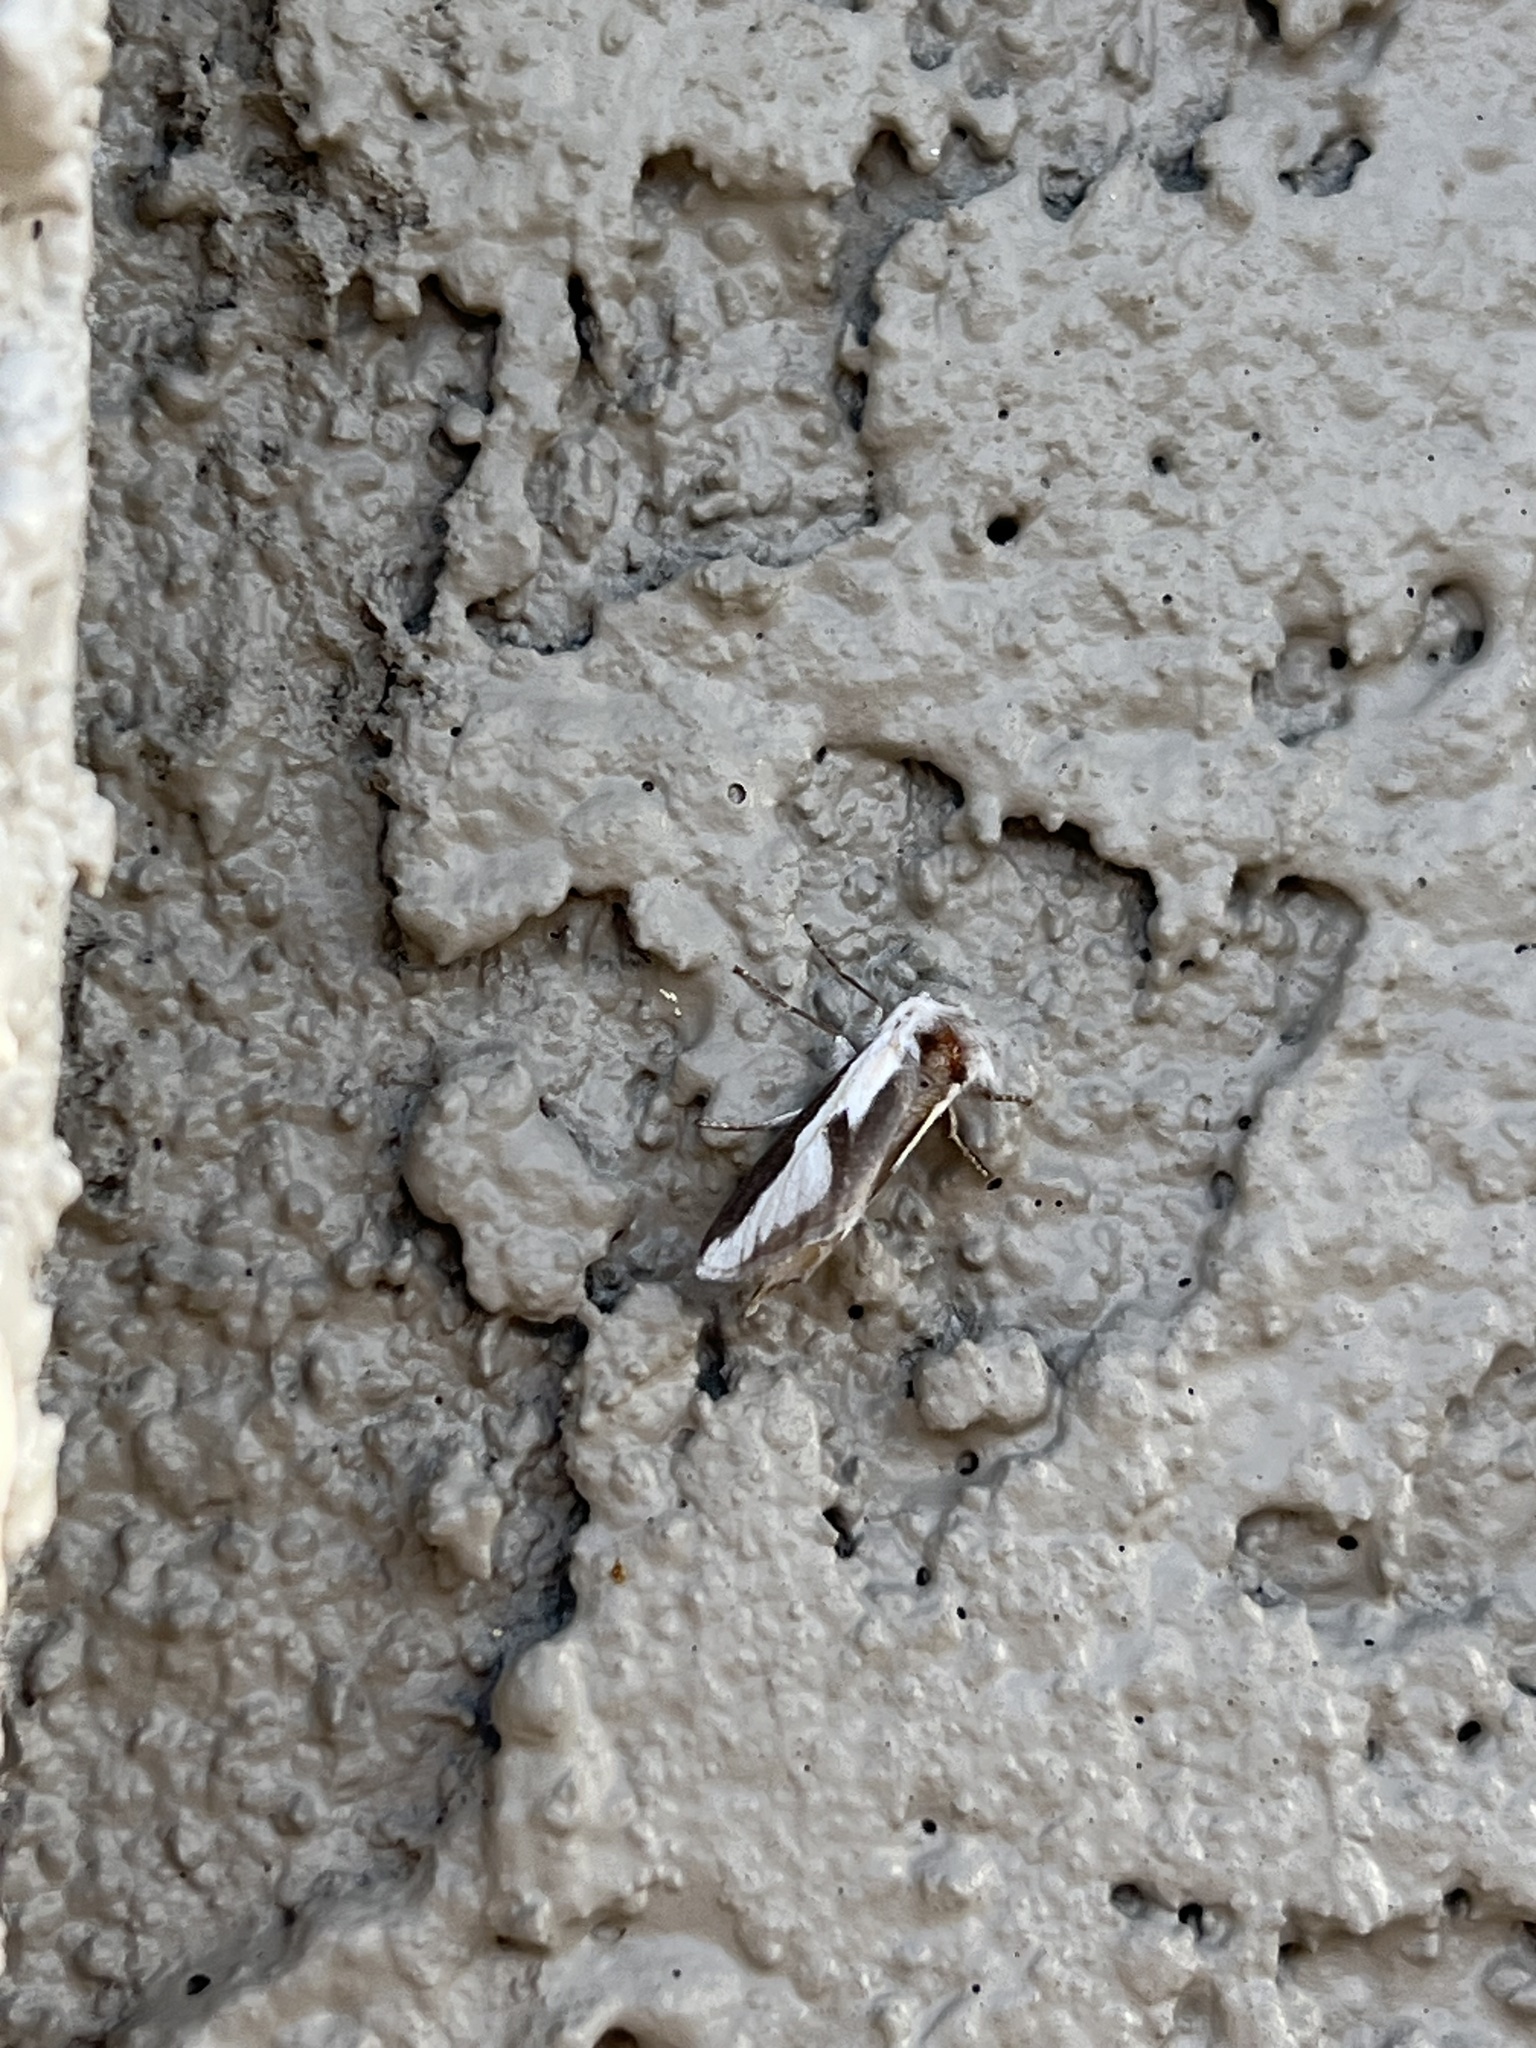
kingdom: Animalia
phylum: Arthropoda
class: Insecta
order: Lepidoptera
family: Megalopygidae
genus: Norape
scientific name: Norape tener
